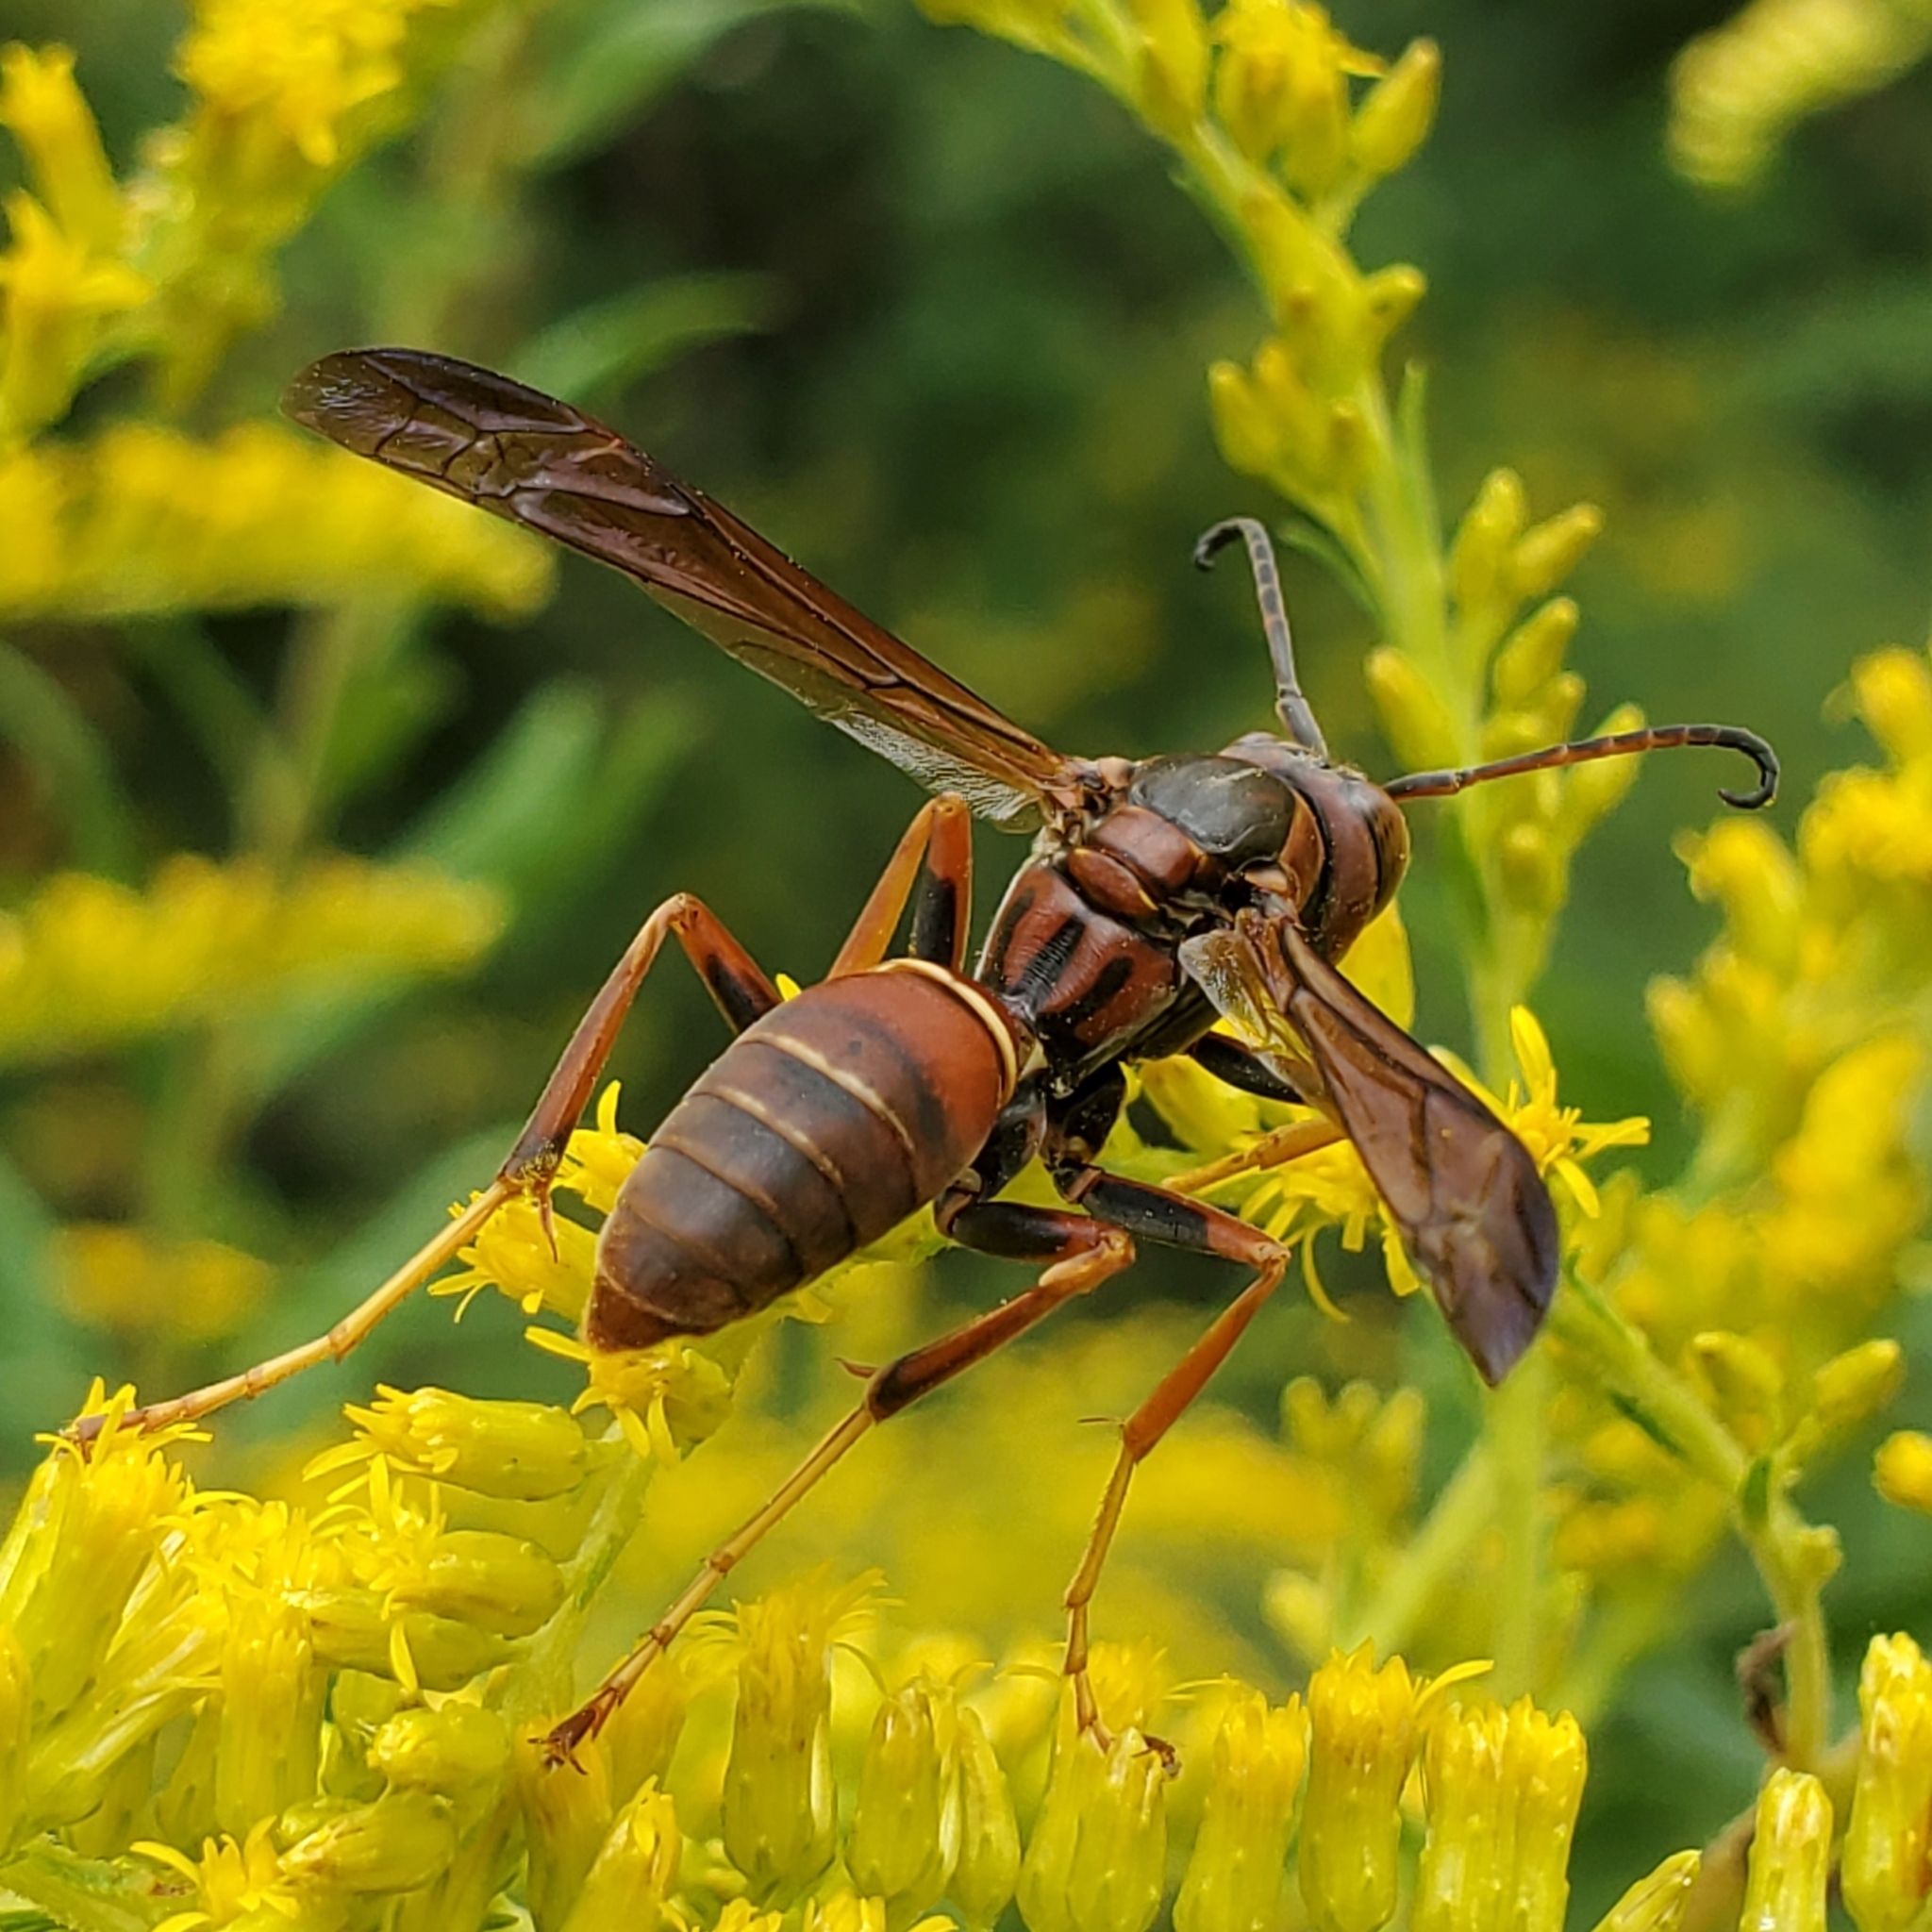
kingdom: Animalia
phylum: Arthropoda
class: Insecta
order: Hymenoptera
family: Eumenidae
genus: Polistes
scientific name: Polistes fuscatus
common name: Dark paper wasp
